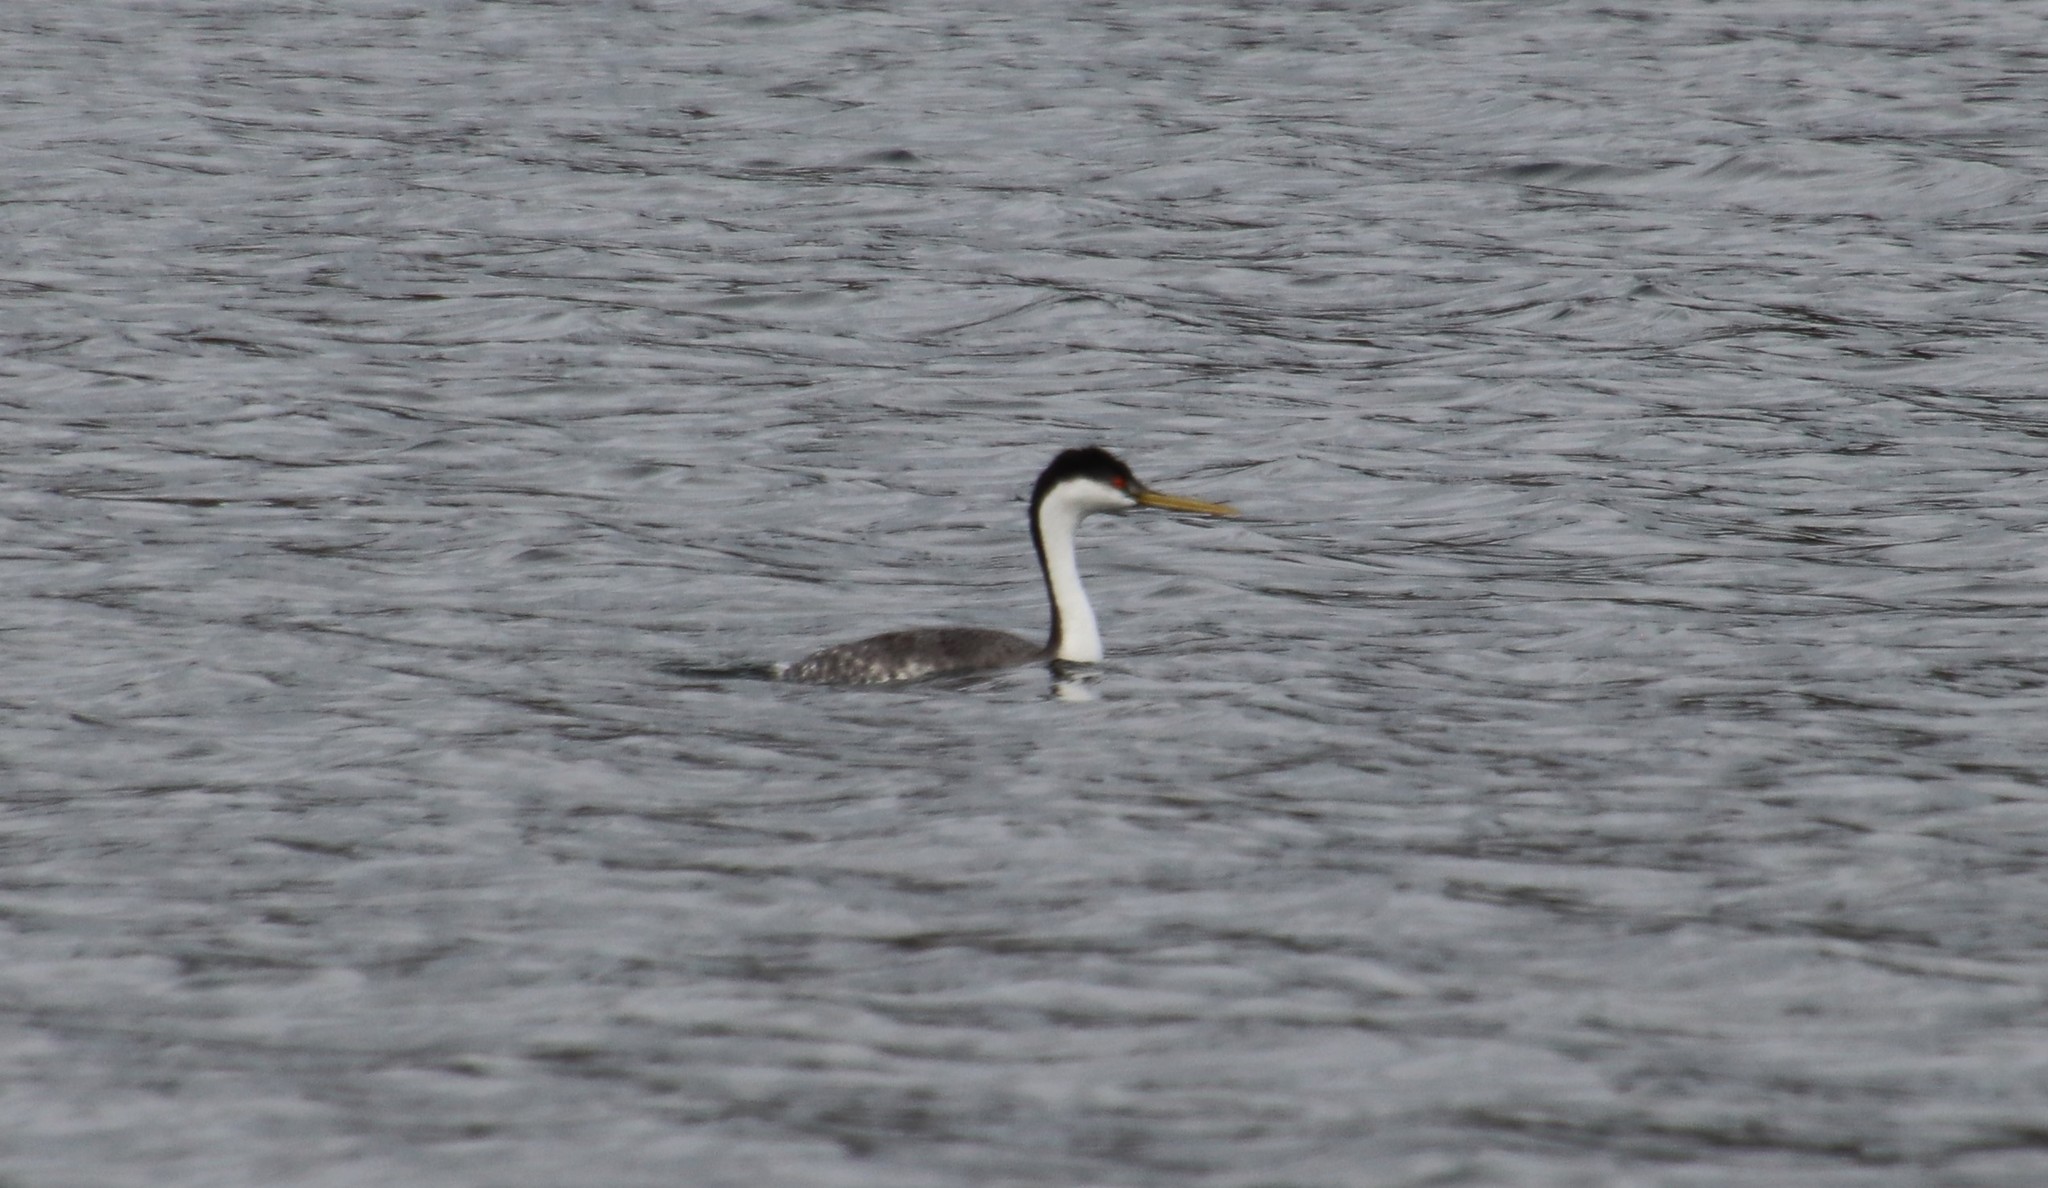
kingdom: Animalia
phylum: Chordata
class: Aves
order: Podicipediformes
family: Podicipedidae
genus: Aechmophorus
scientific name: Aechmophorus occidentalis
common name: Western grebe
